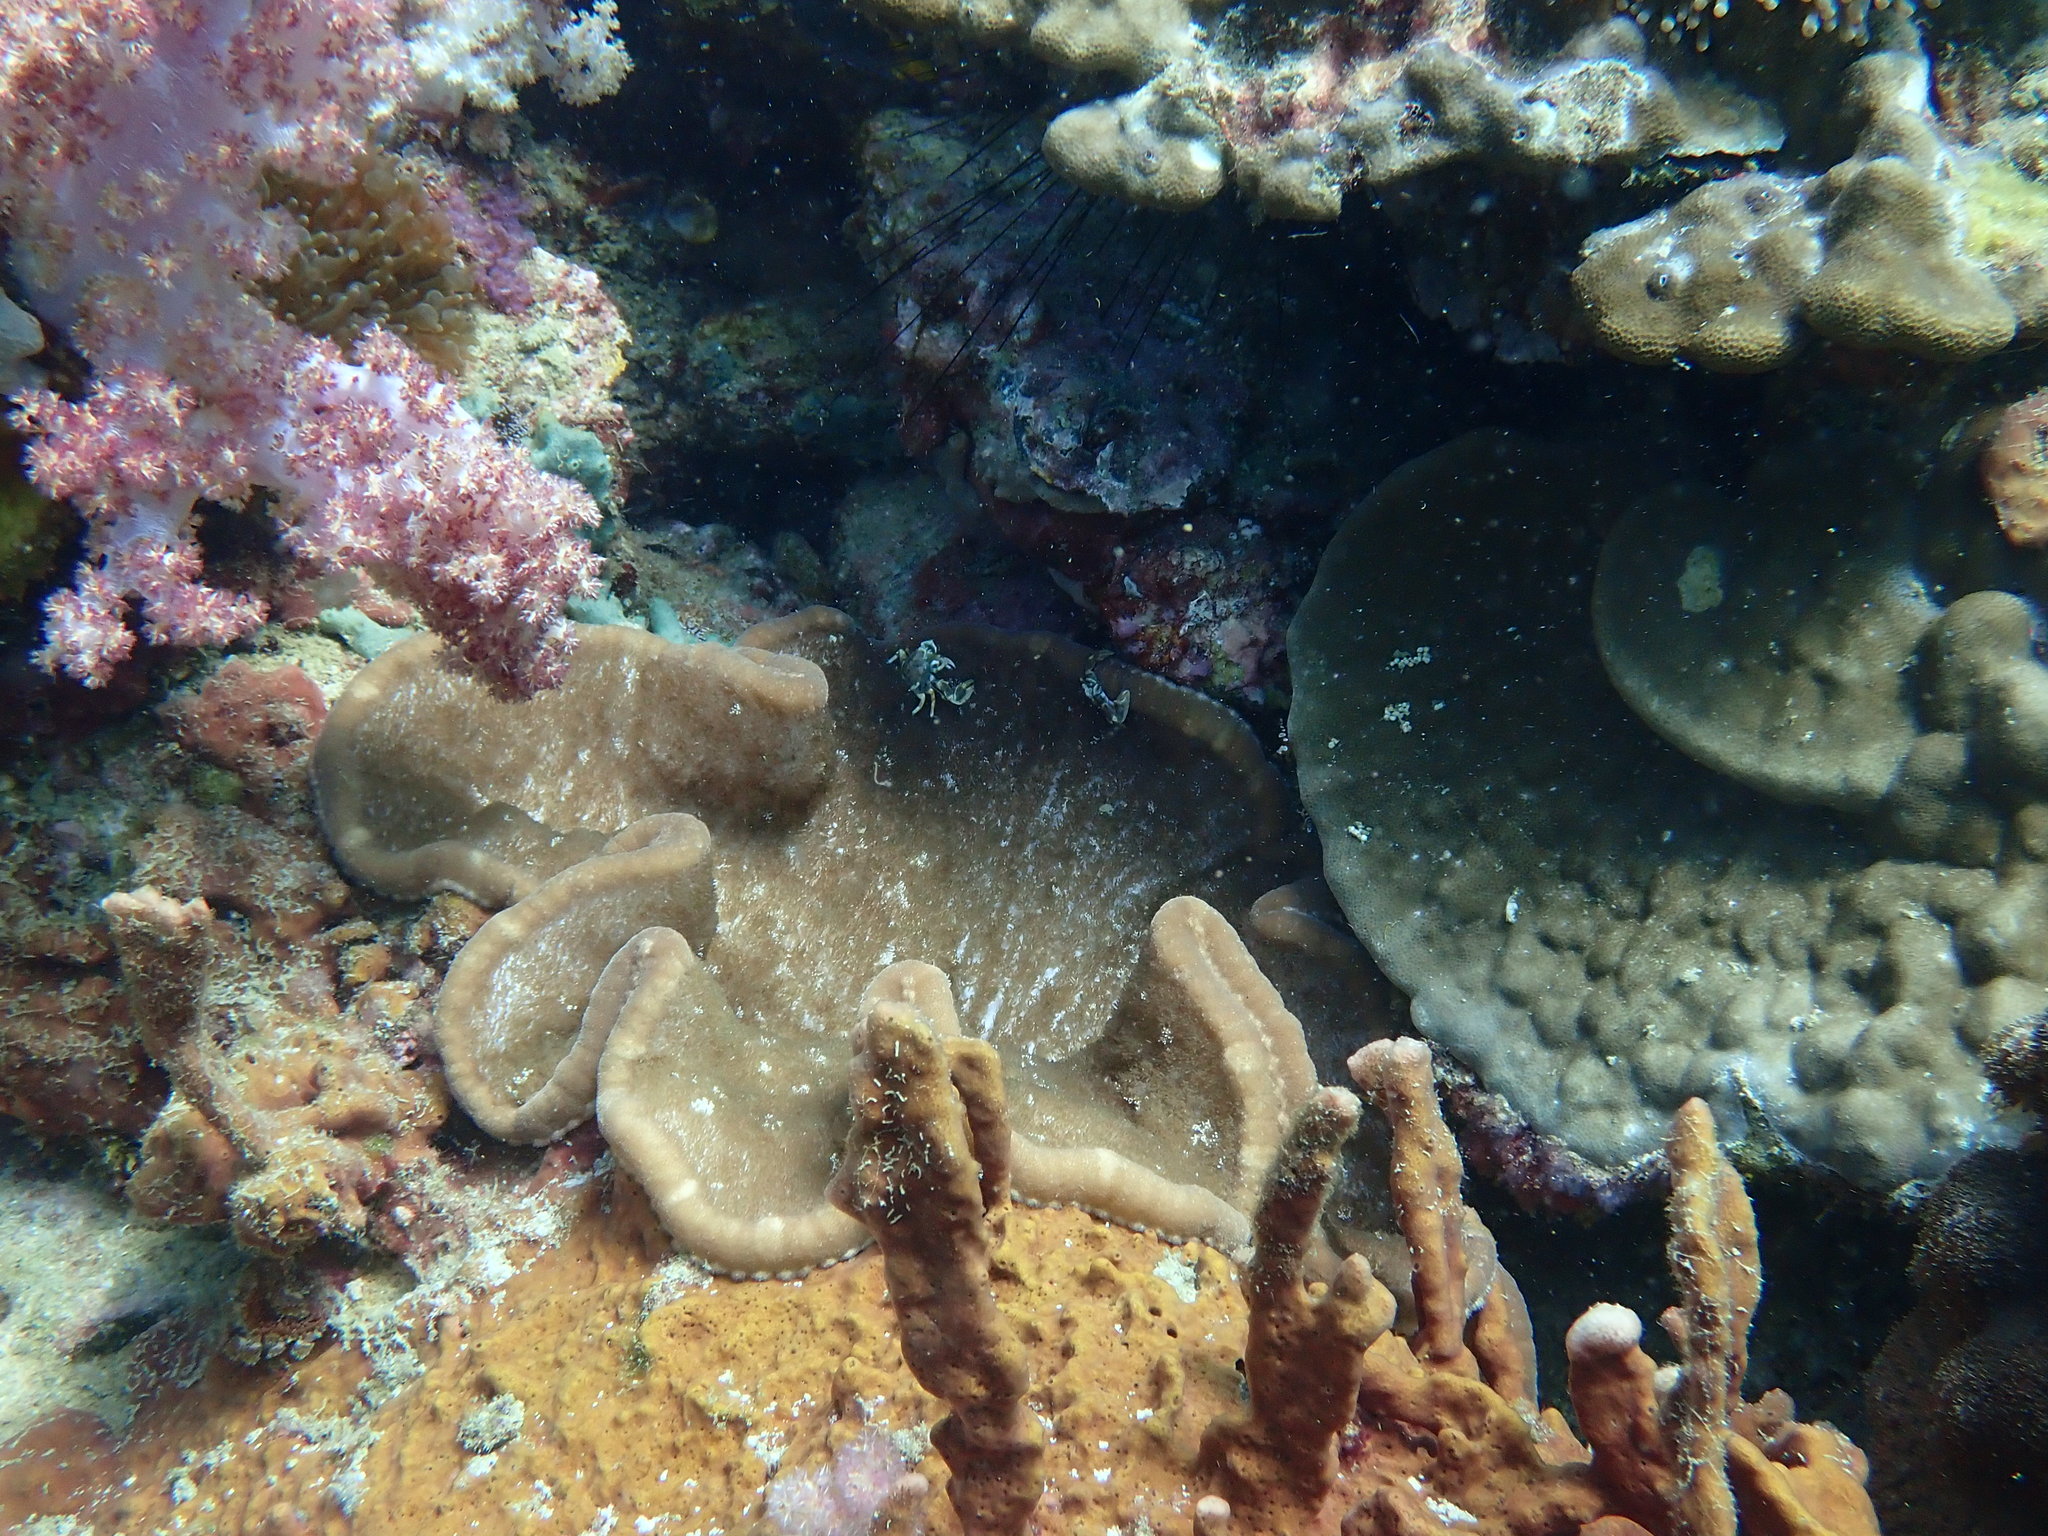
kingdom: Animalia
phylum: Cnidaria
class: Anthozoa
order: Actiniaria
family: Thalassianthidae
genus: Cryptodendrum
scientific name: Cryptodendrum adhaesivum
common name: Adhesive sea anemone
